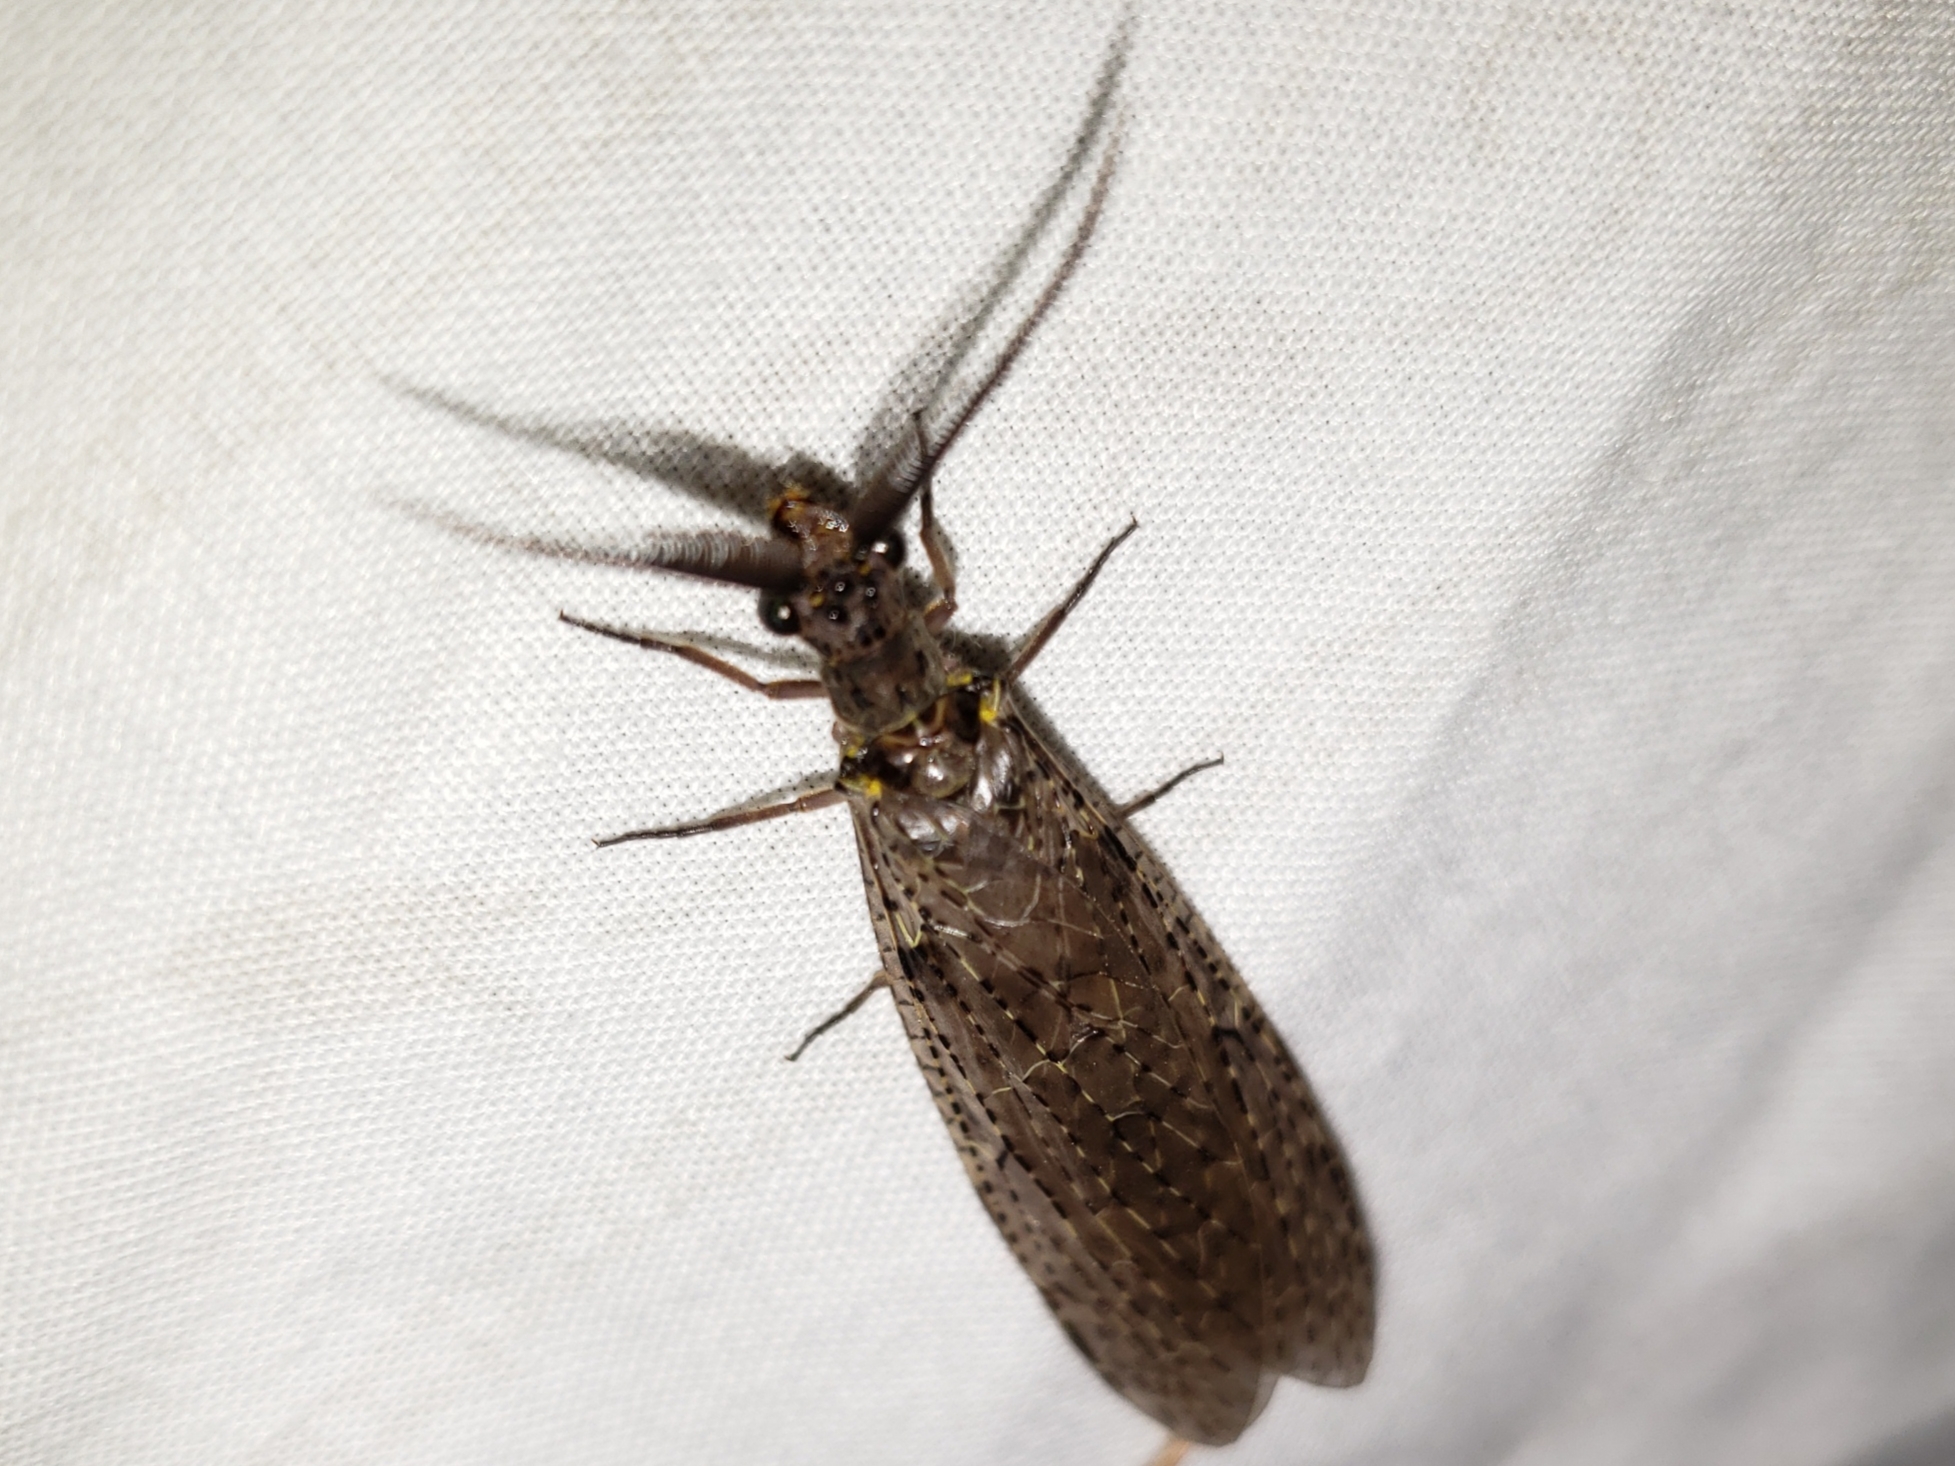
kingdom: Animalia
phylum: Arthropoda
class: Insecta
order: Megaloptera
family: Corydalidae
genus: Chauliodes
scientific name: Chauliodes rastricornis
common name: Spring fishfly
